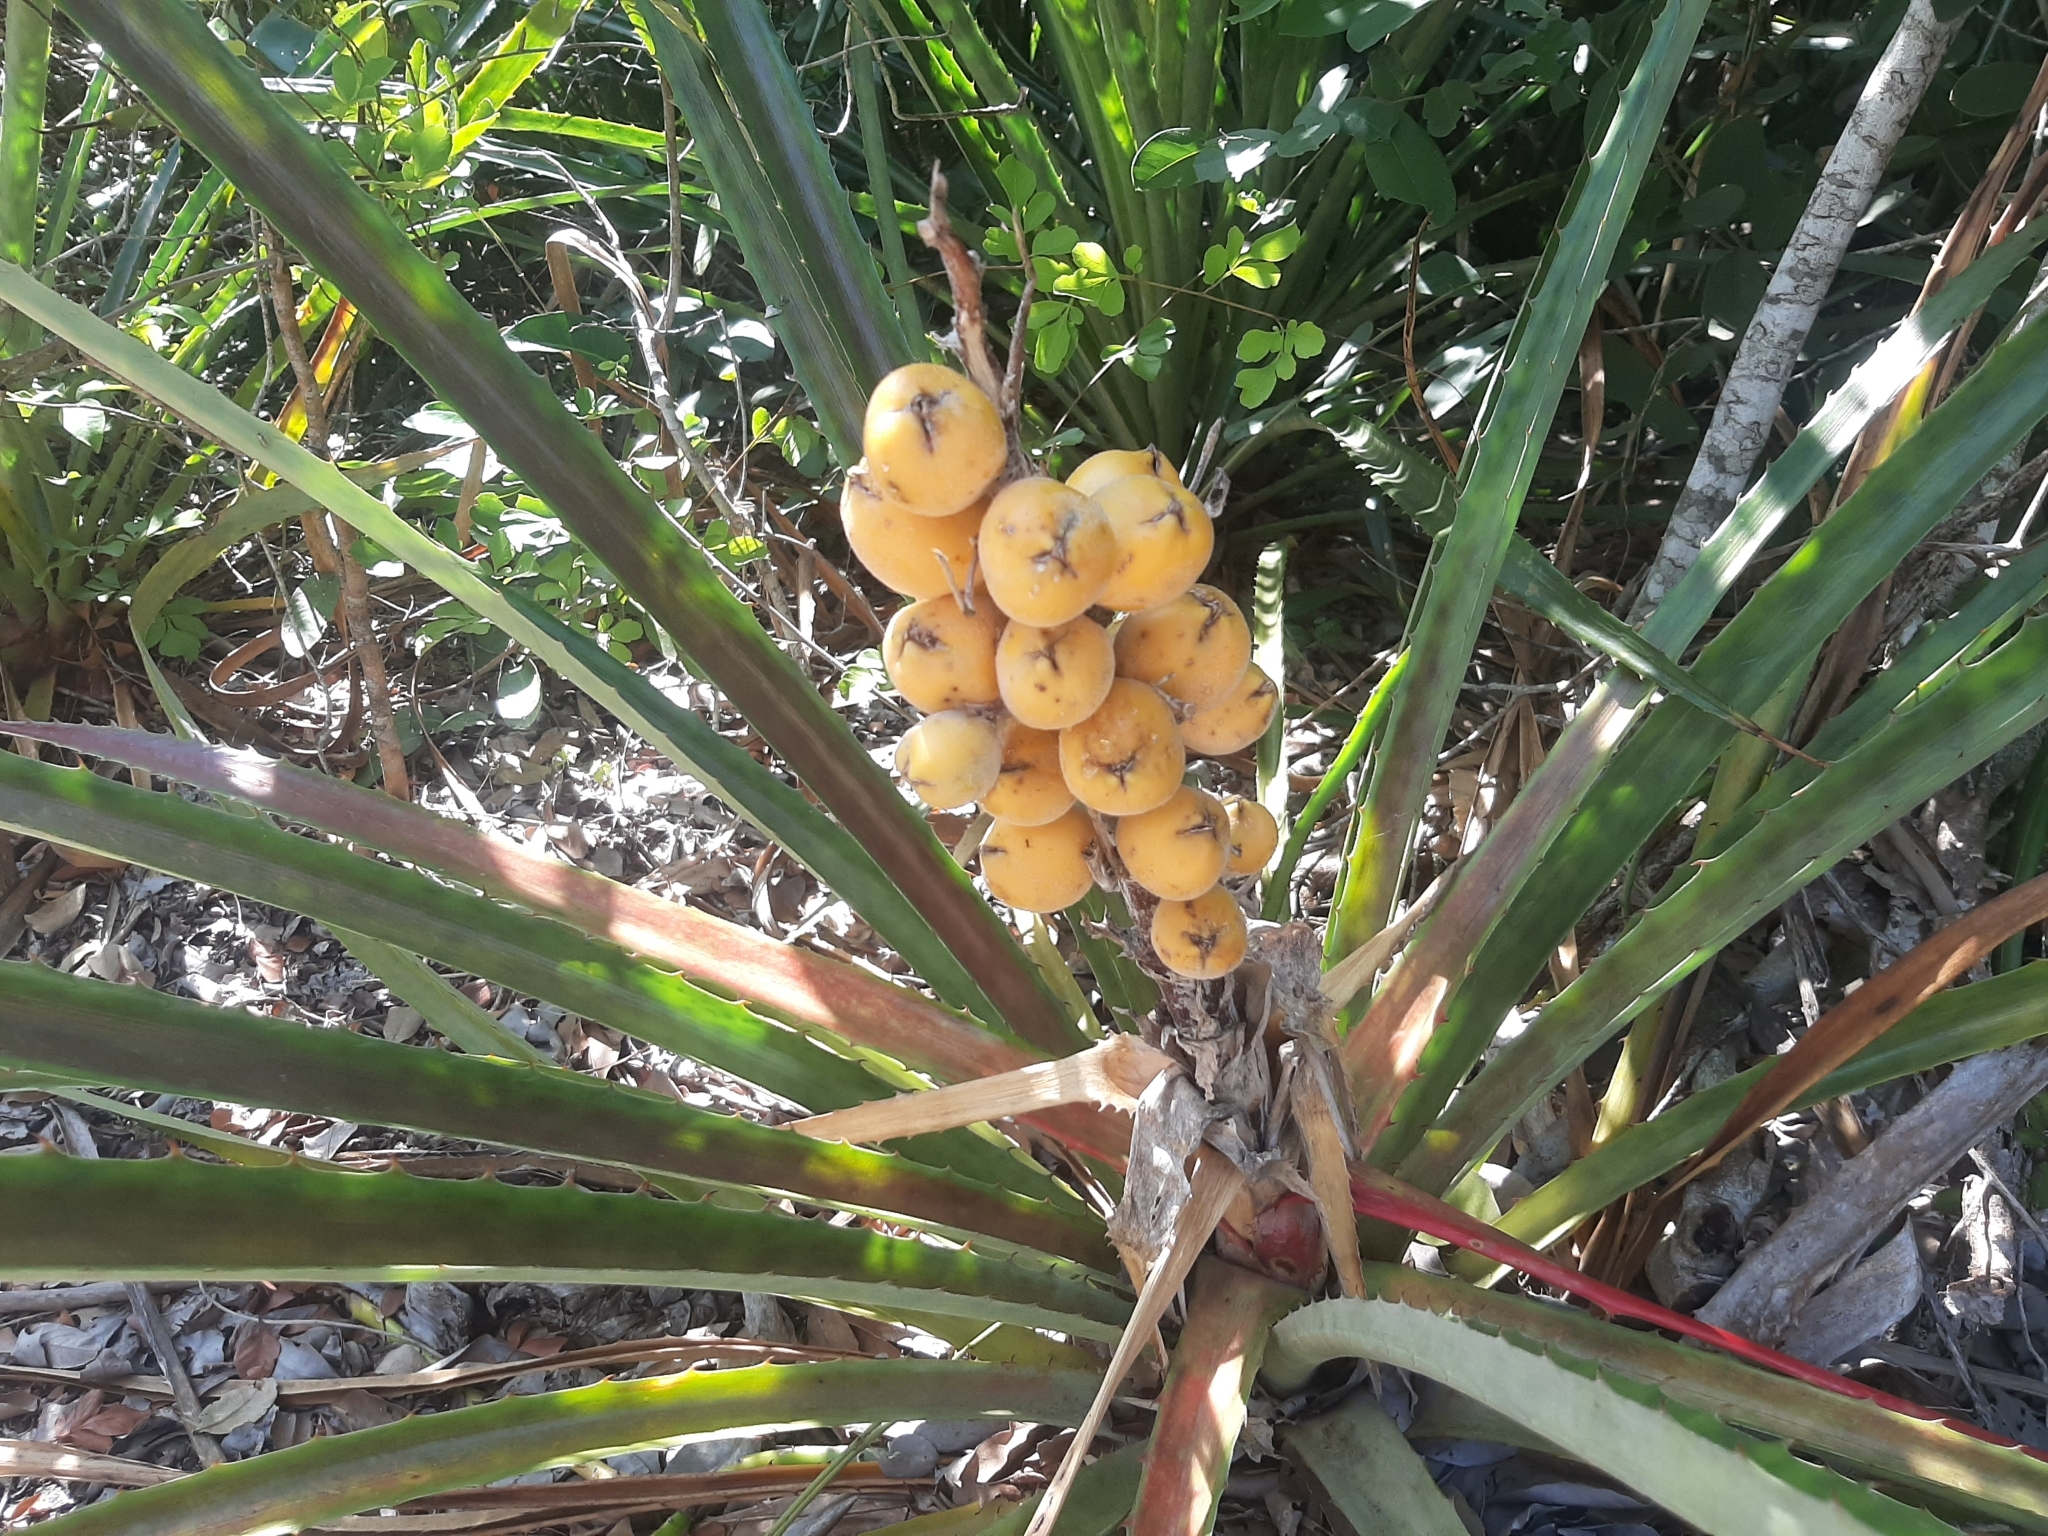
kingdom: Plantae
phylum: Tracheophyta
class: Liliopsida
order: Poales
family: Bromeliaceae
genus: Bromelia
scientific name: Bromelia antiacantha
